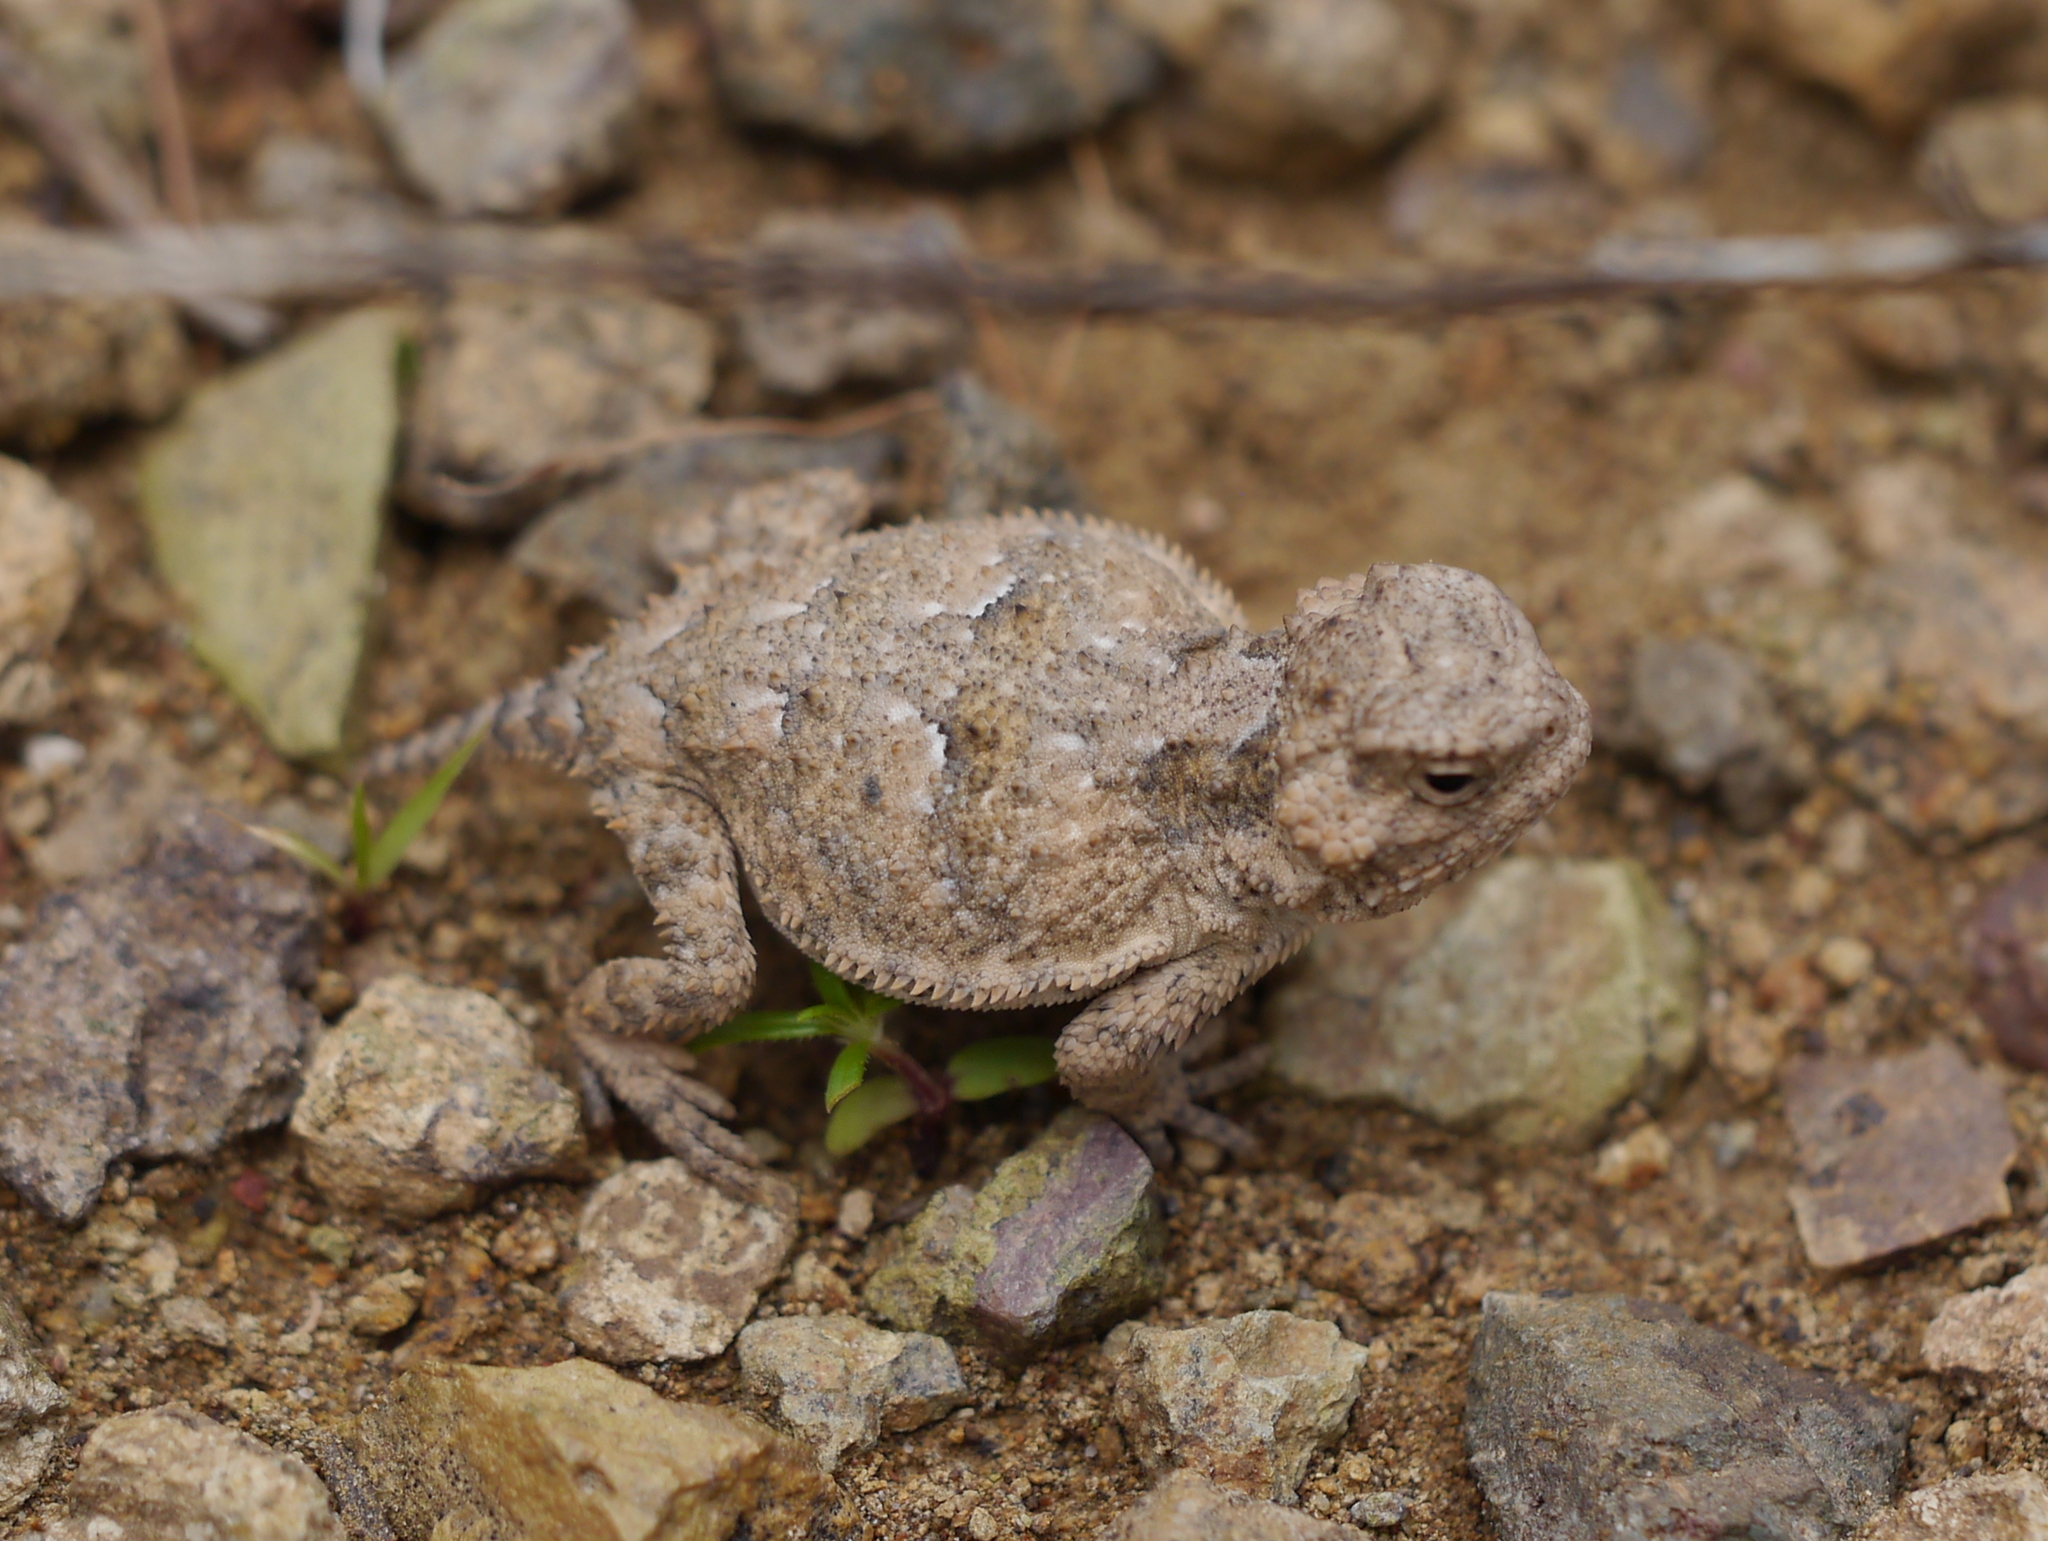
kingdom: Animalia
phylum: Chordata
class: Squamata
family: Phrynosomatidae
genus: Phrynosoma
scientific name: Phrynosoma hernandesi
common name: Greater short-horned lizard
